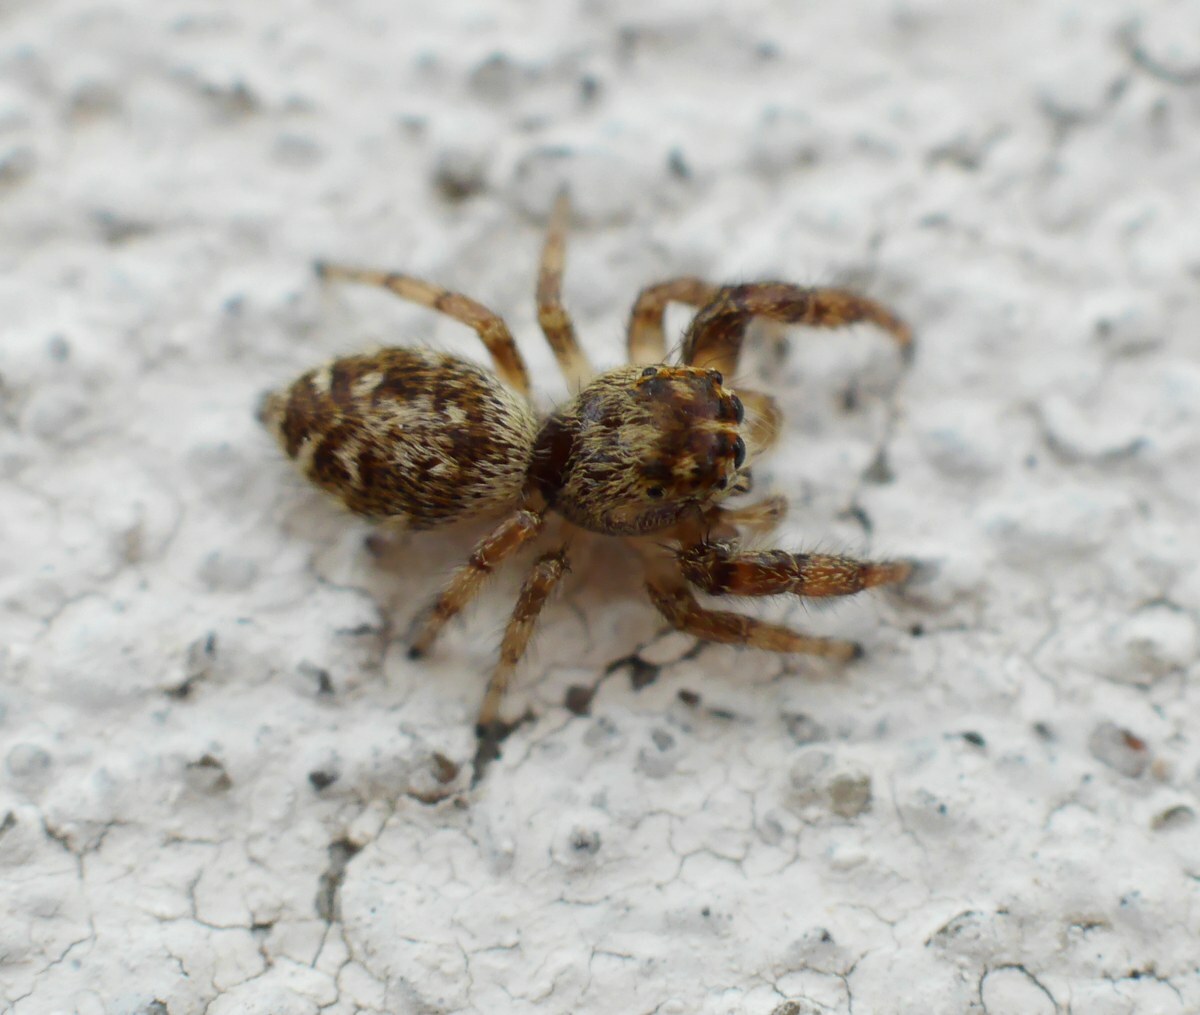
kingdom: Animalia
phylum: Arthropoda
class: Arachnida
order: Araneae
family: Salticidae
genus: Macaroeris
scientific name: Macaroeris nidicolens
